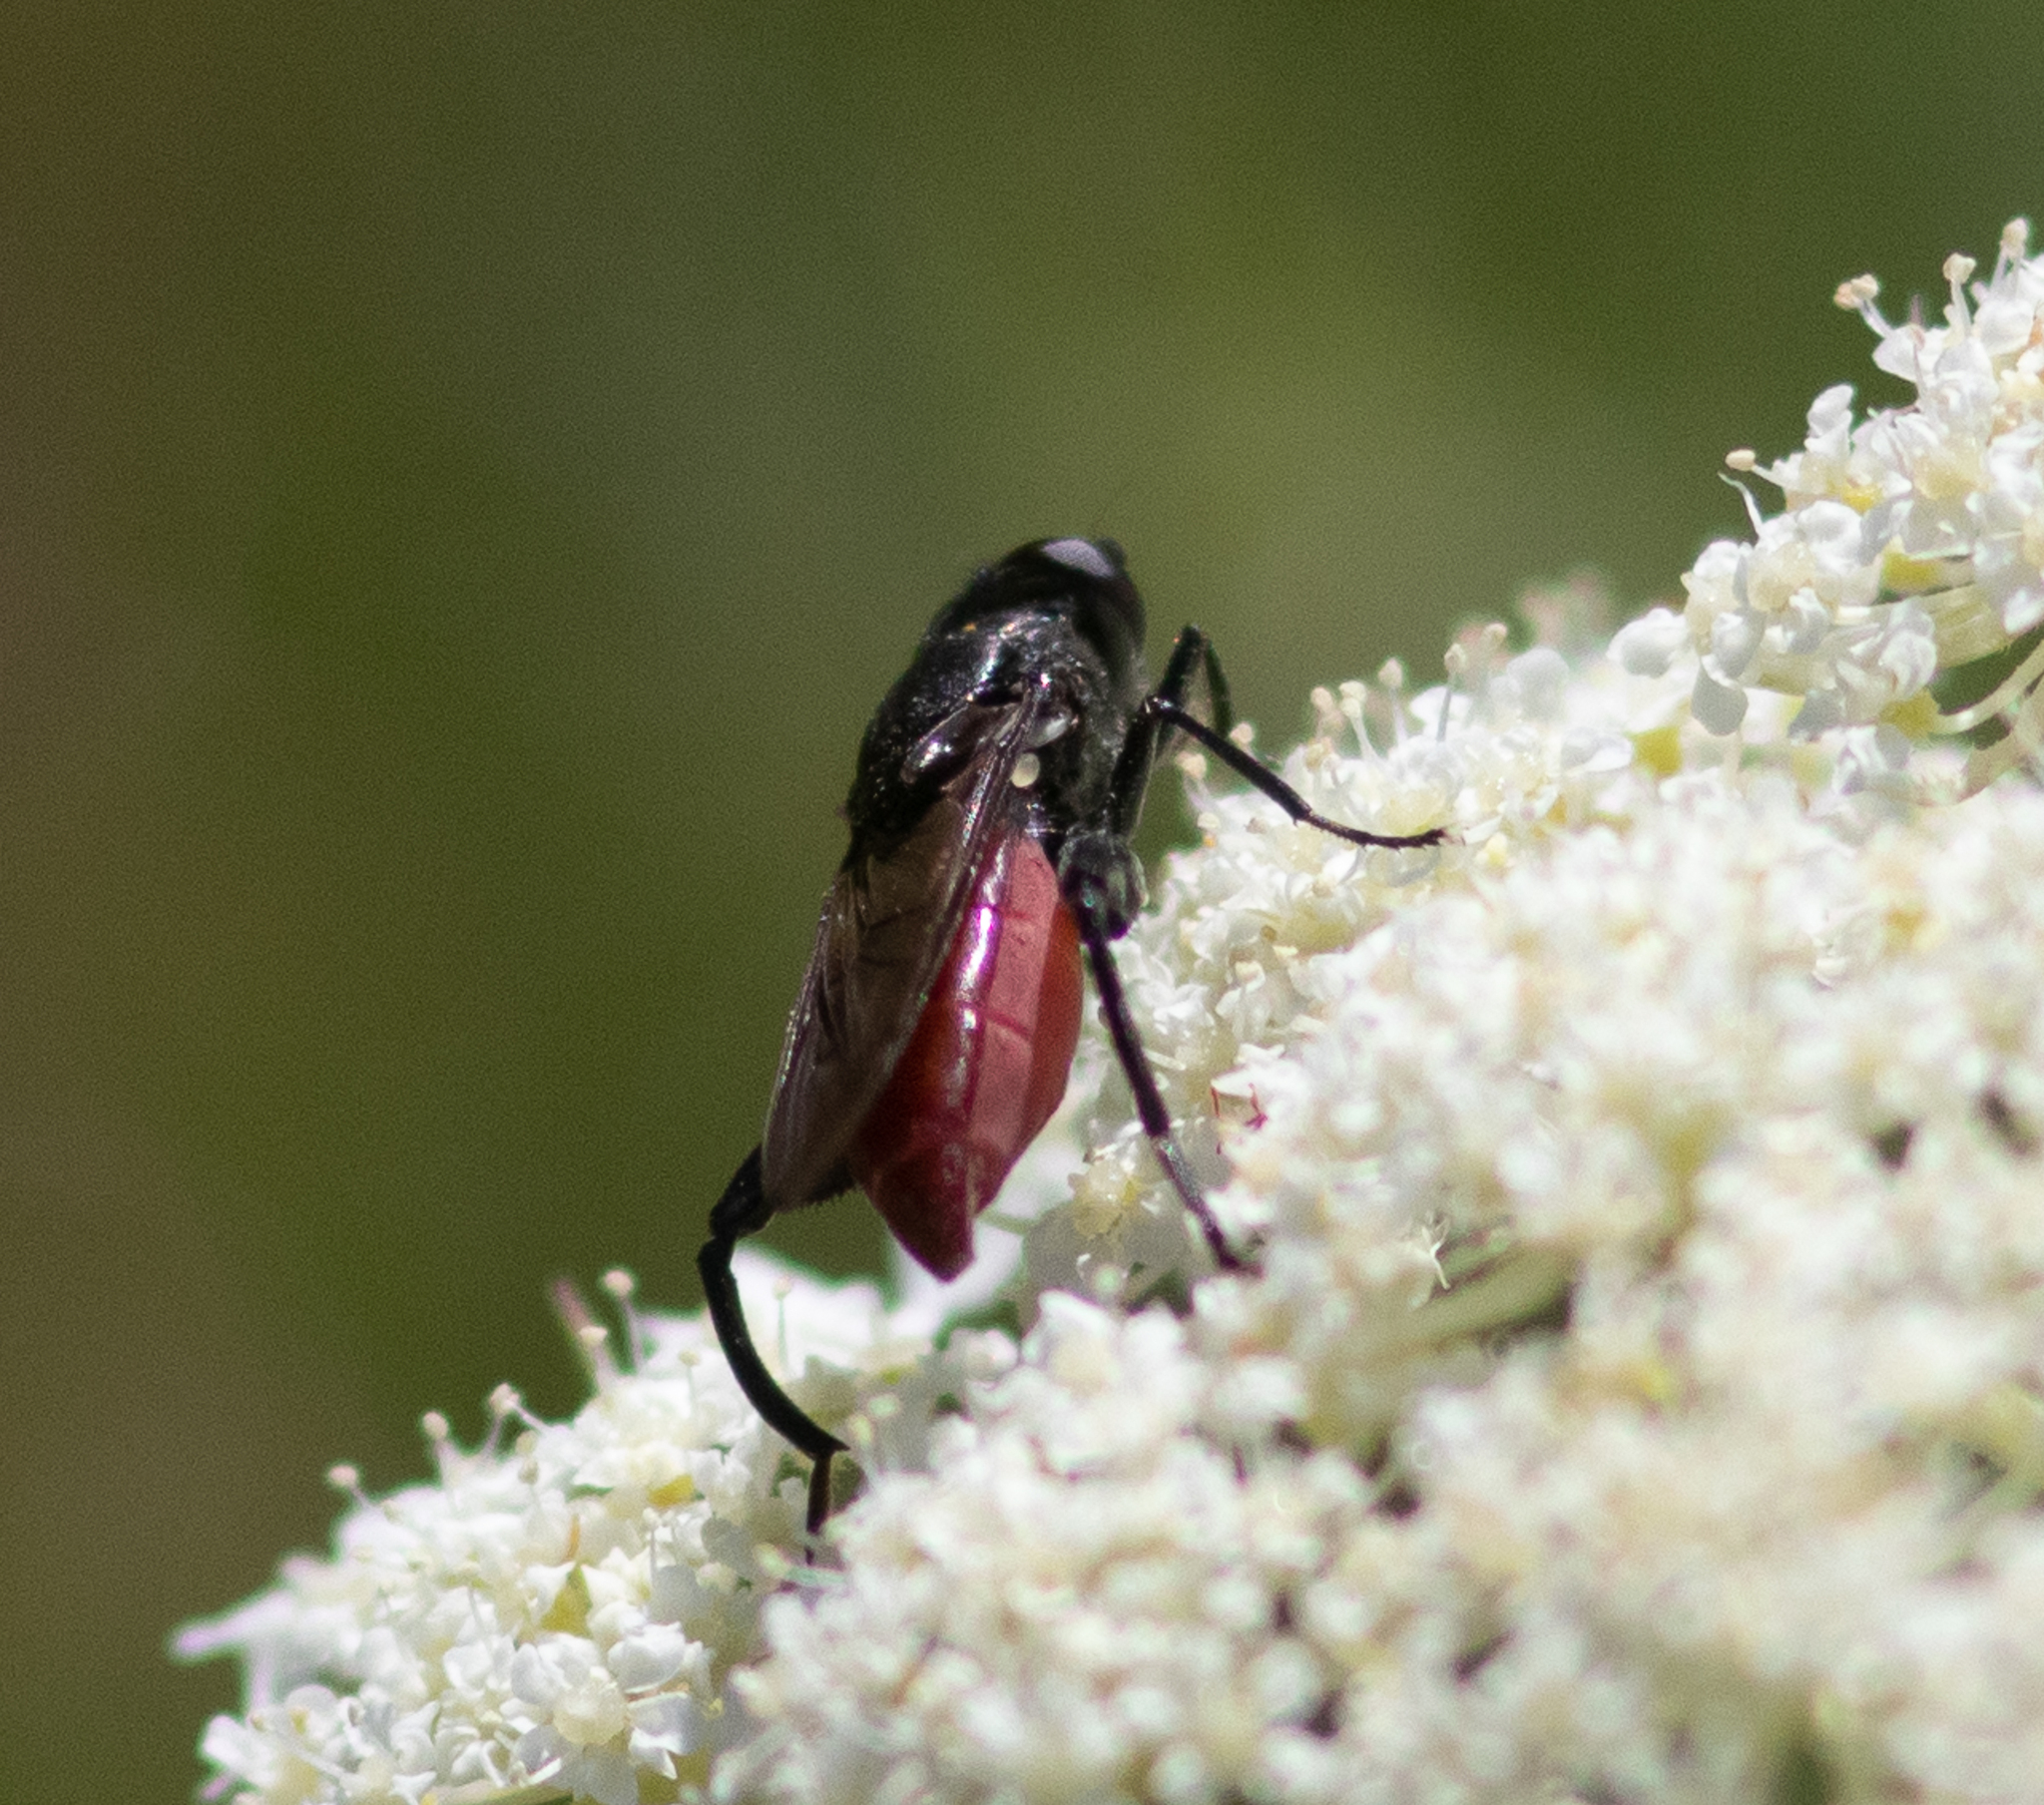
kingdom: Animalia
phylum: Arthropoda
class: Insecta
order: Diptera
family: Syrphidae
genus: Chalcosyrphus
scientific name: Chalcosyrphus piger
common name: Short-haired leafwalker
